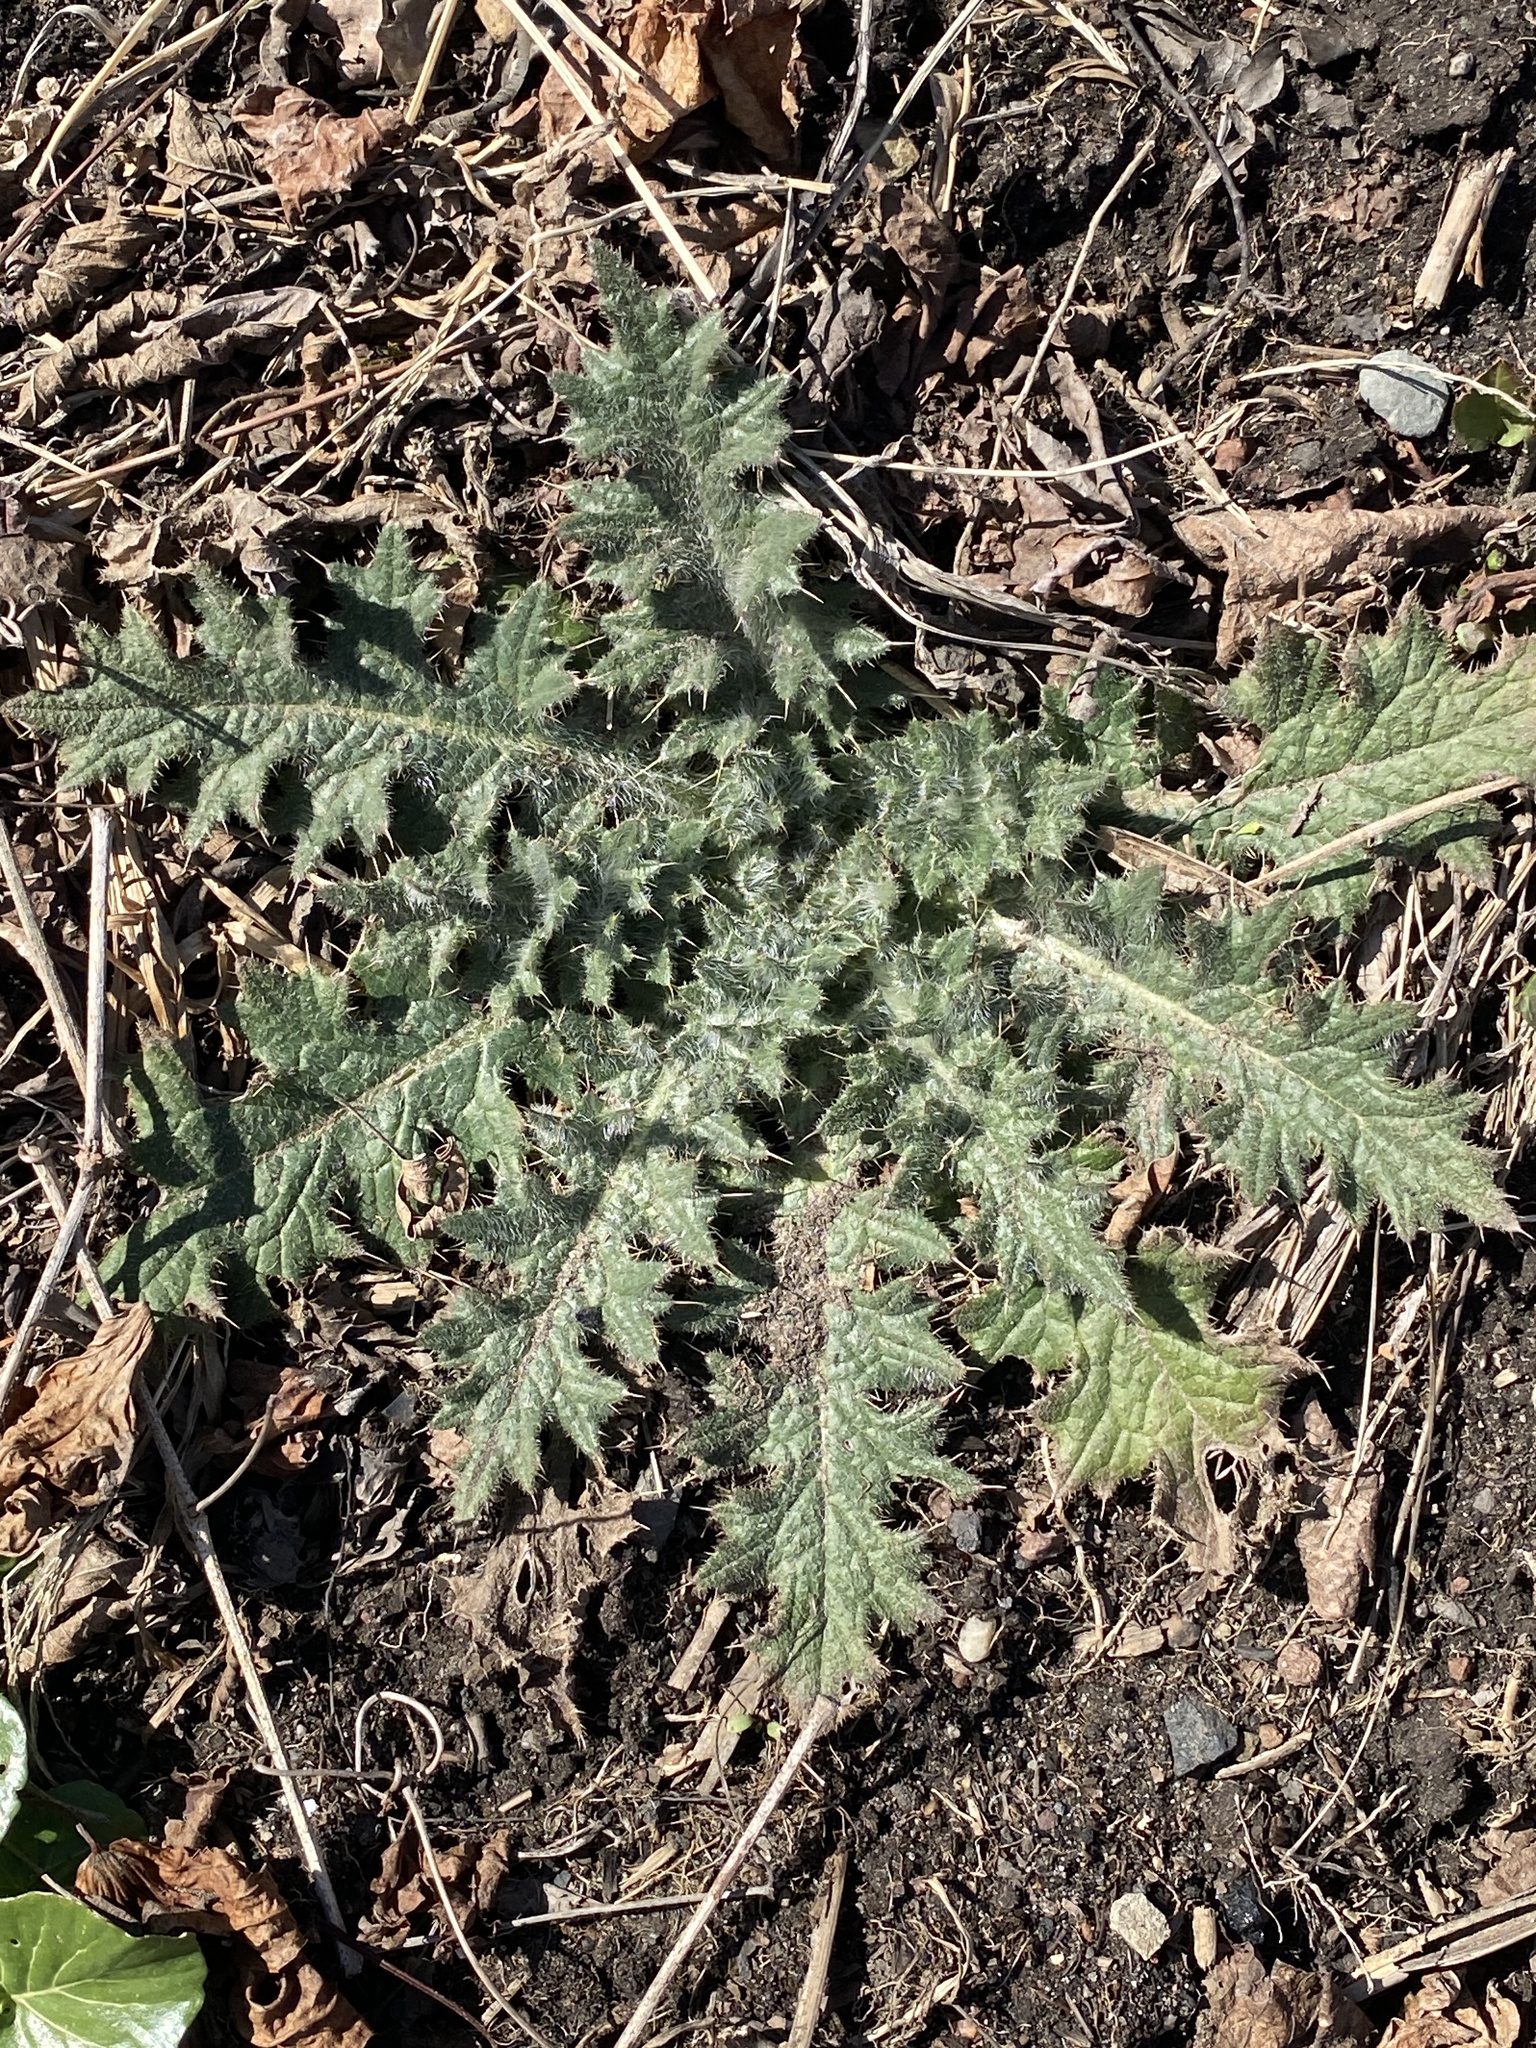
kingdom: Plantae
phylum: Tracheophyta
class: Magnoliopsida
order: Asterales
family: Asteraceae
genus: Cirsium
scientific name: Cirsium vulgare
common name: Bull thistle
